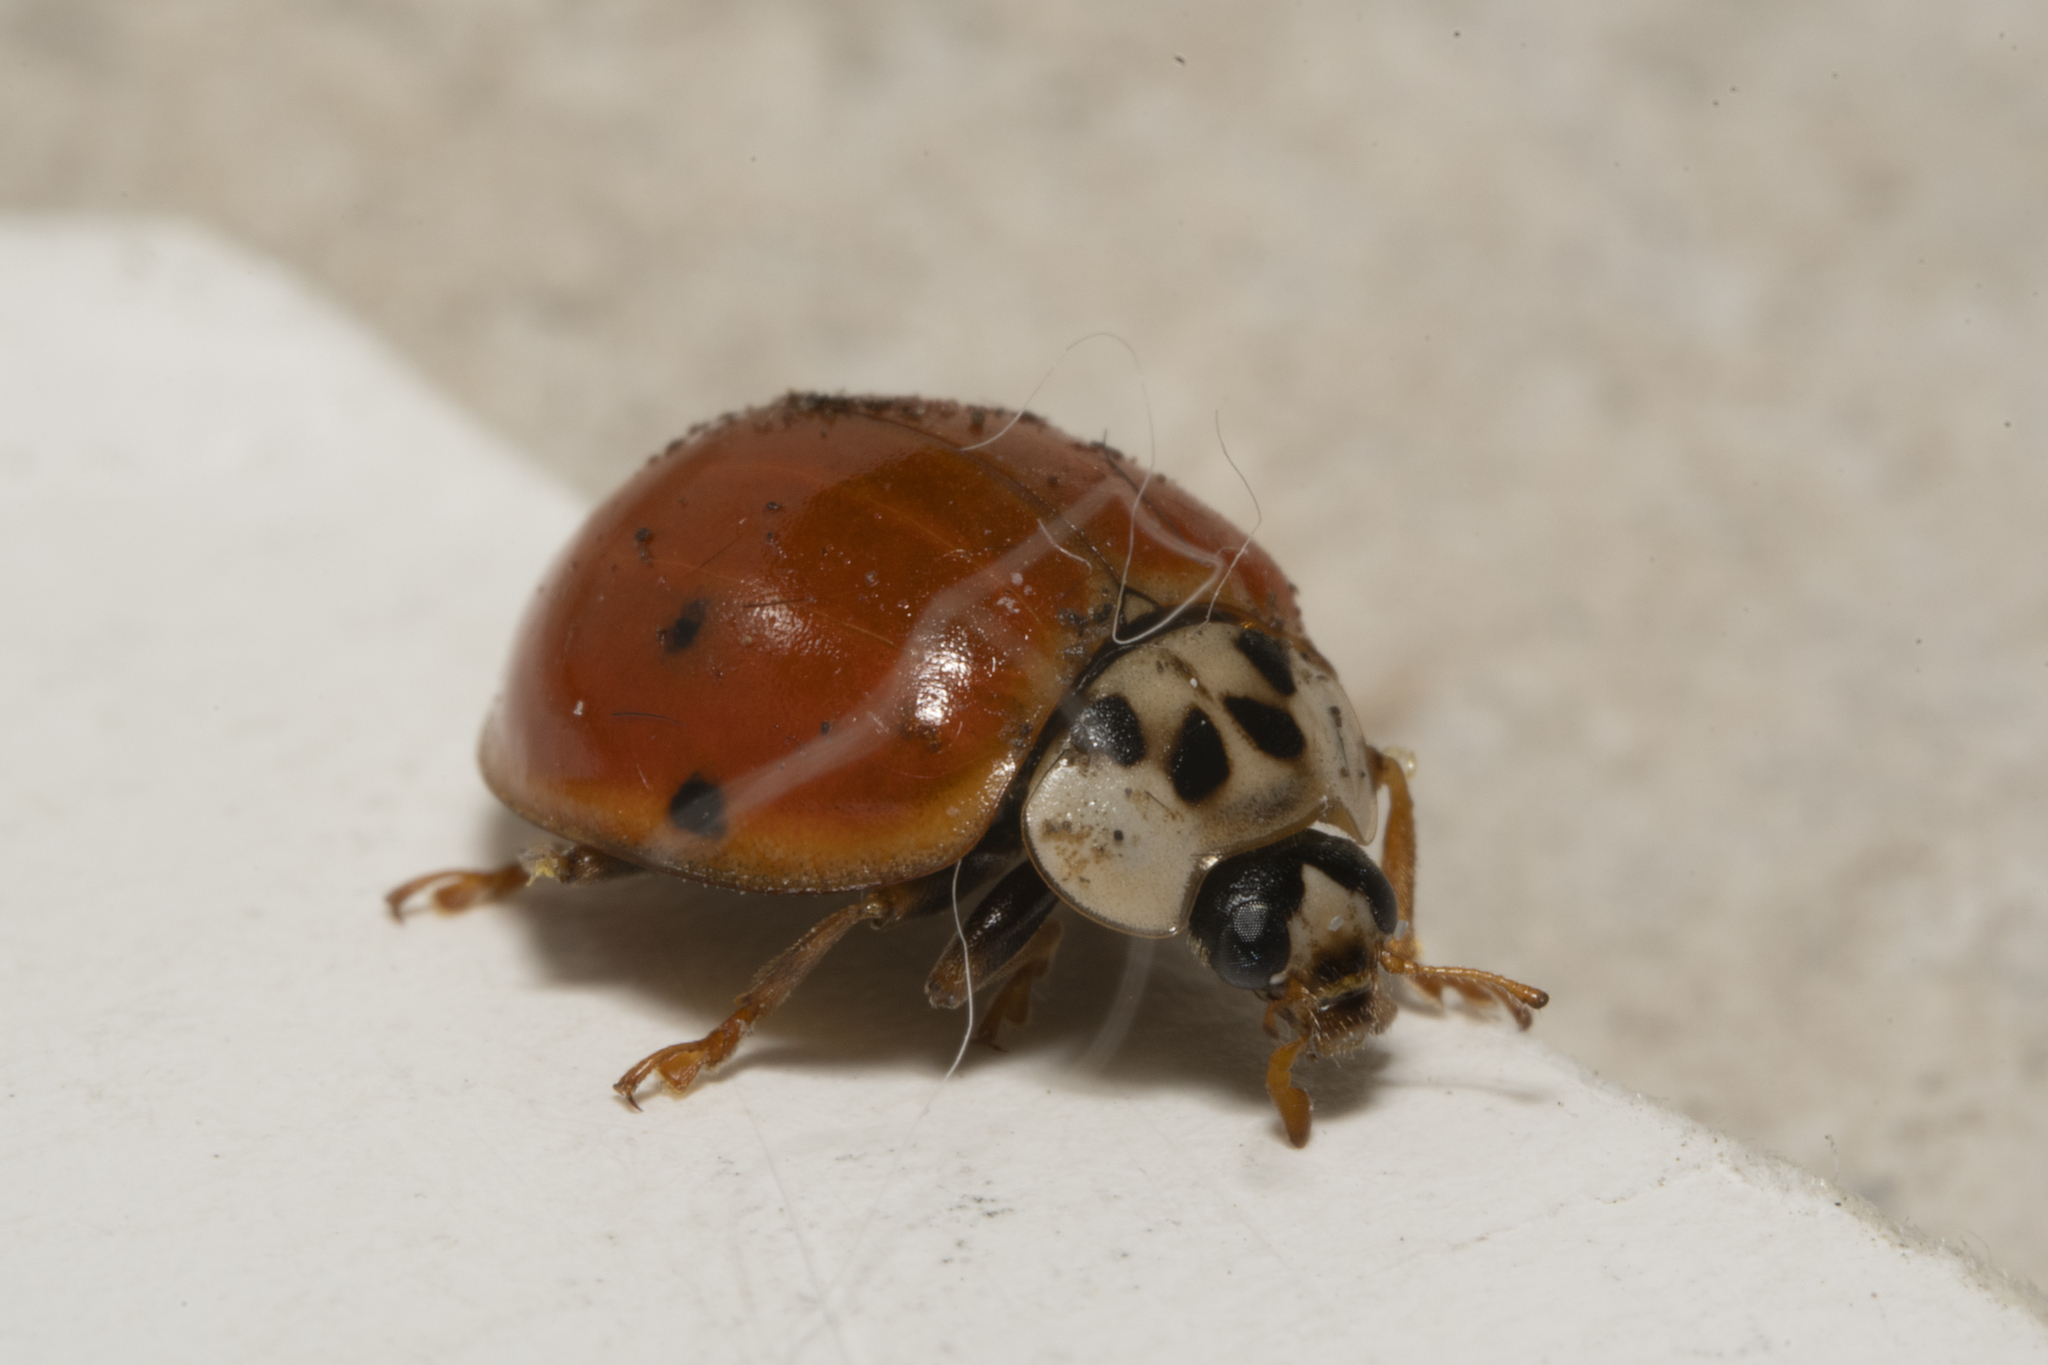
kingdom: Animalia
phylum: Arthropoda
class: Insecta
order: Coleoptera
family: Coccinellidae
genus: Harmonia
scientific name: Harmonia axyridis
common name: Harlequin ladybird
